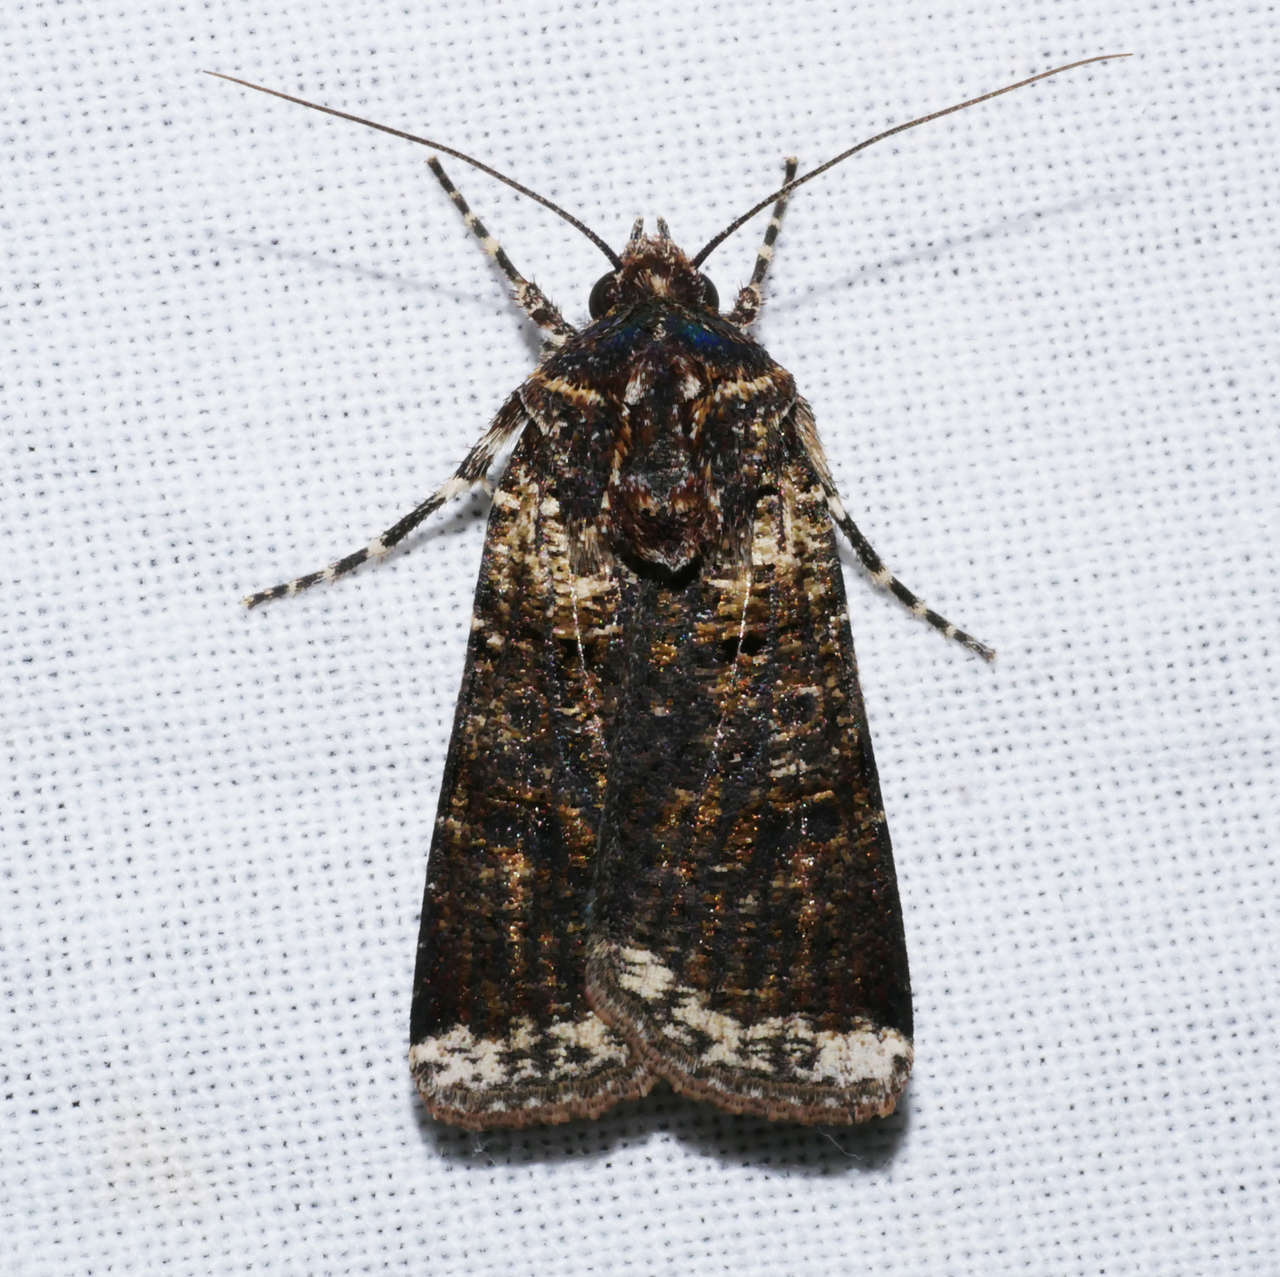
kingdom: Animalia
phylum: Arthropoda
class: Insecta
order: Lepidoptera
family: Noctuidae
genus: Agrotis
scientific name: Agrotis porphyricollis
